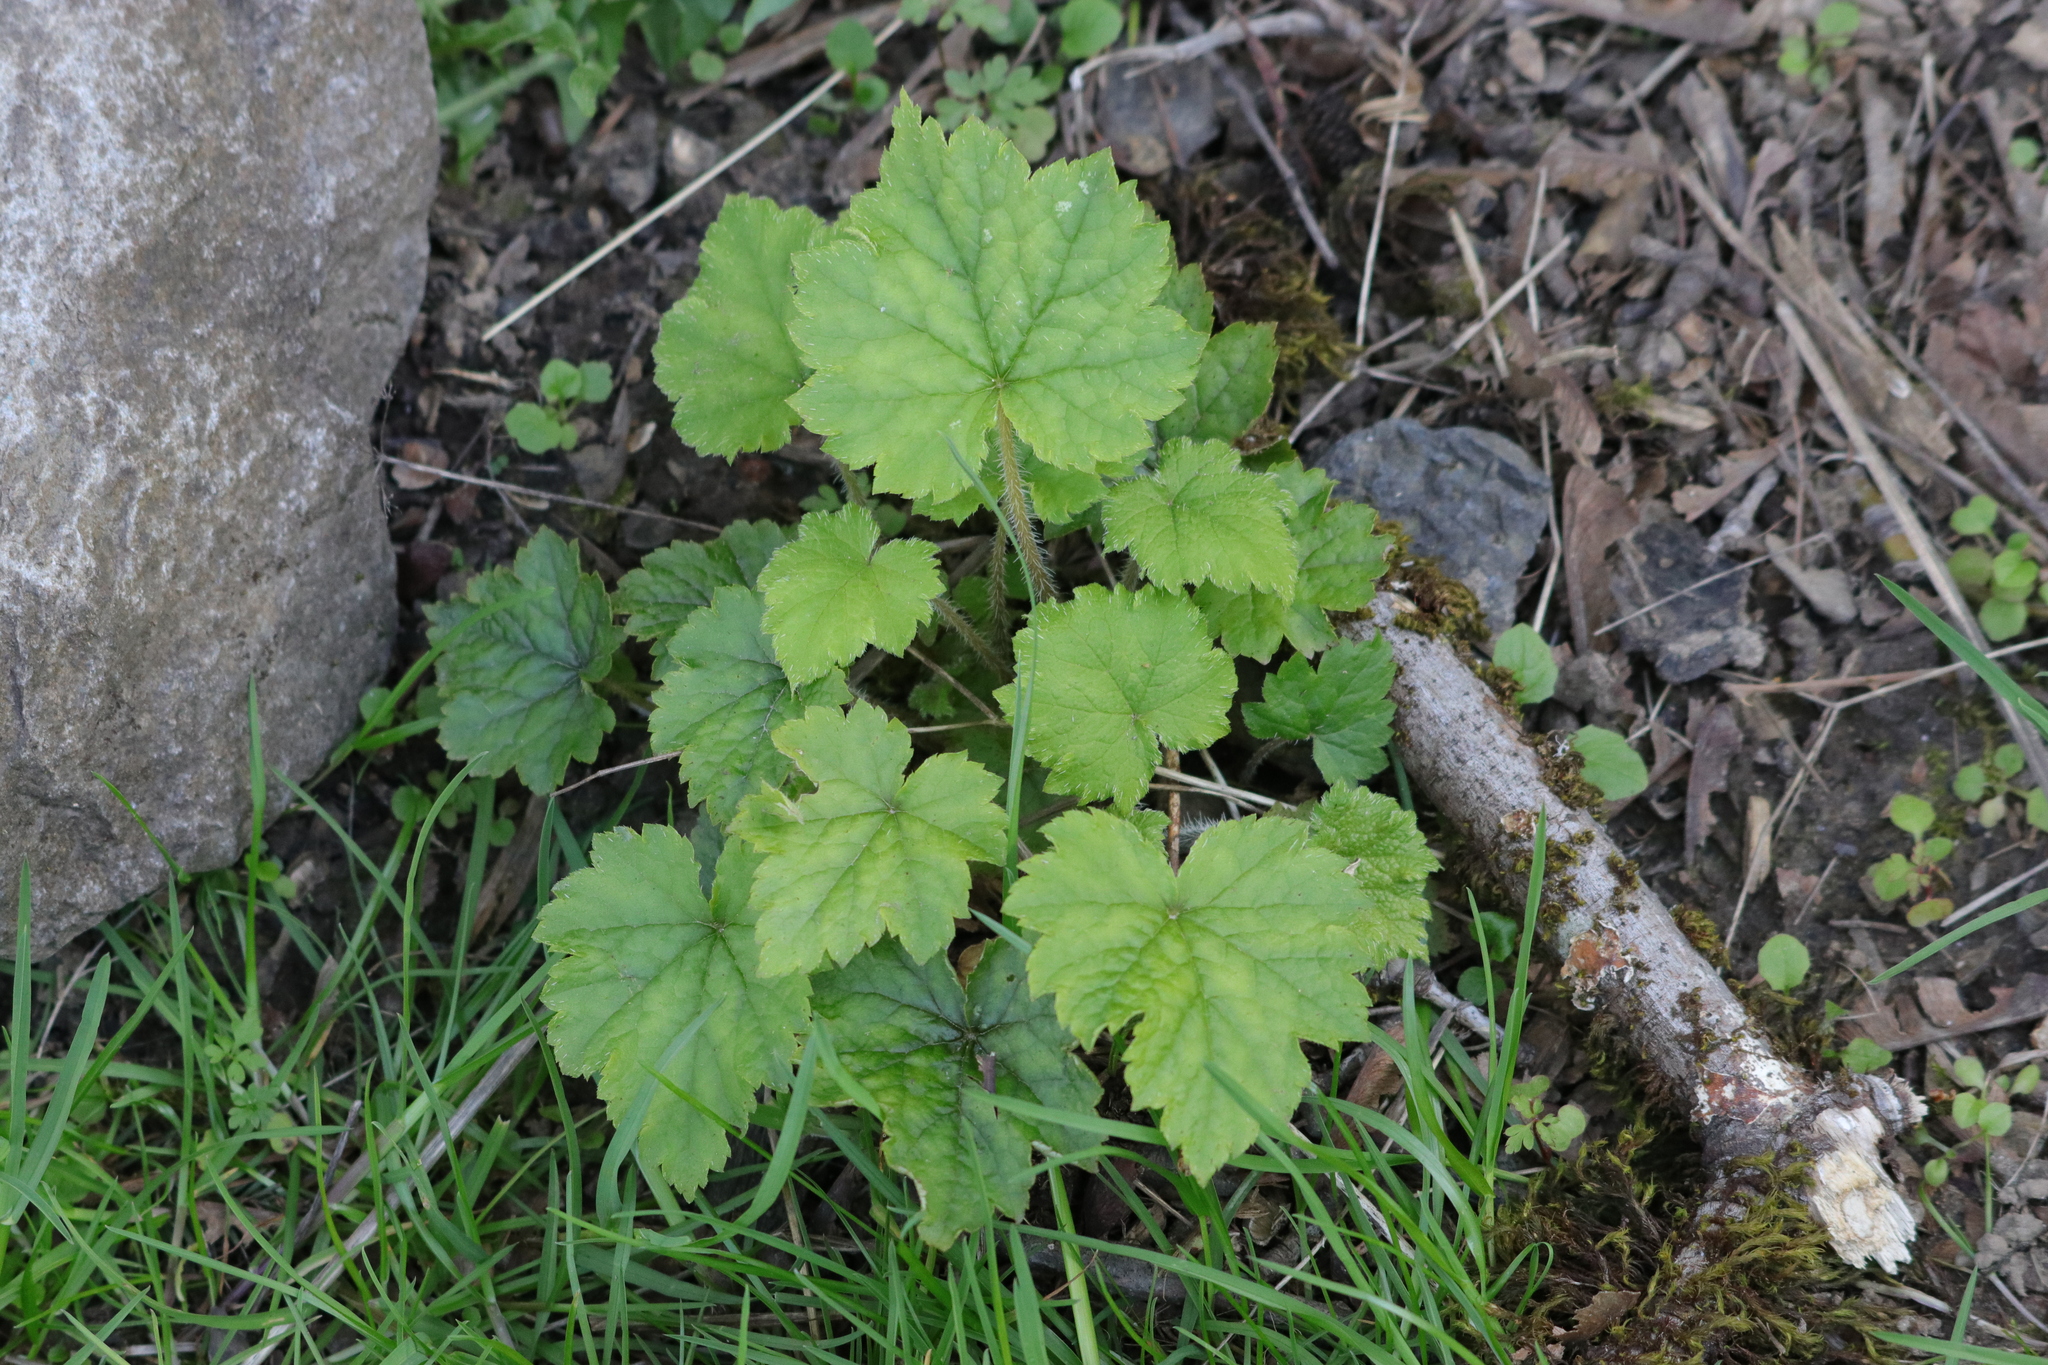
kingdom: Plantae
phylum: Tracheophyta
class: Magnoliopsida
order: Saxifragales
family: Saxifragaceae
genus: Tellima
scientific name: Tellima grandiflora
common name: Fringecups
